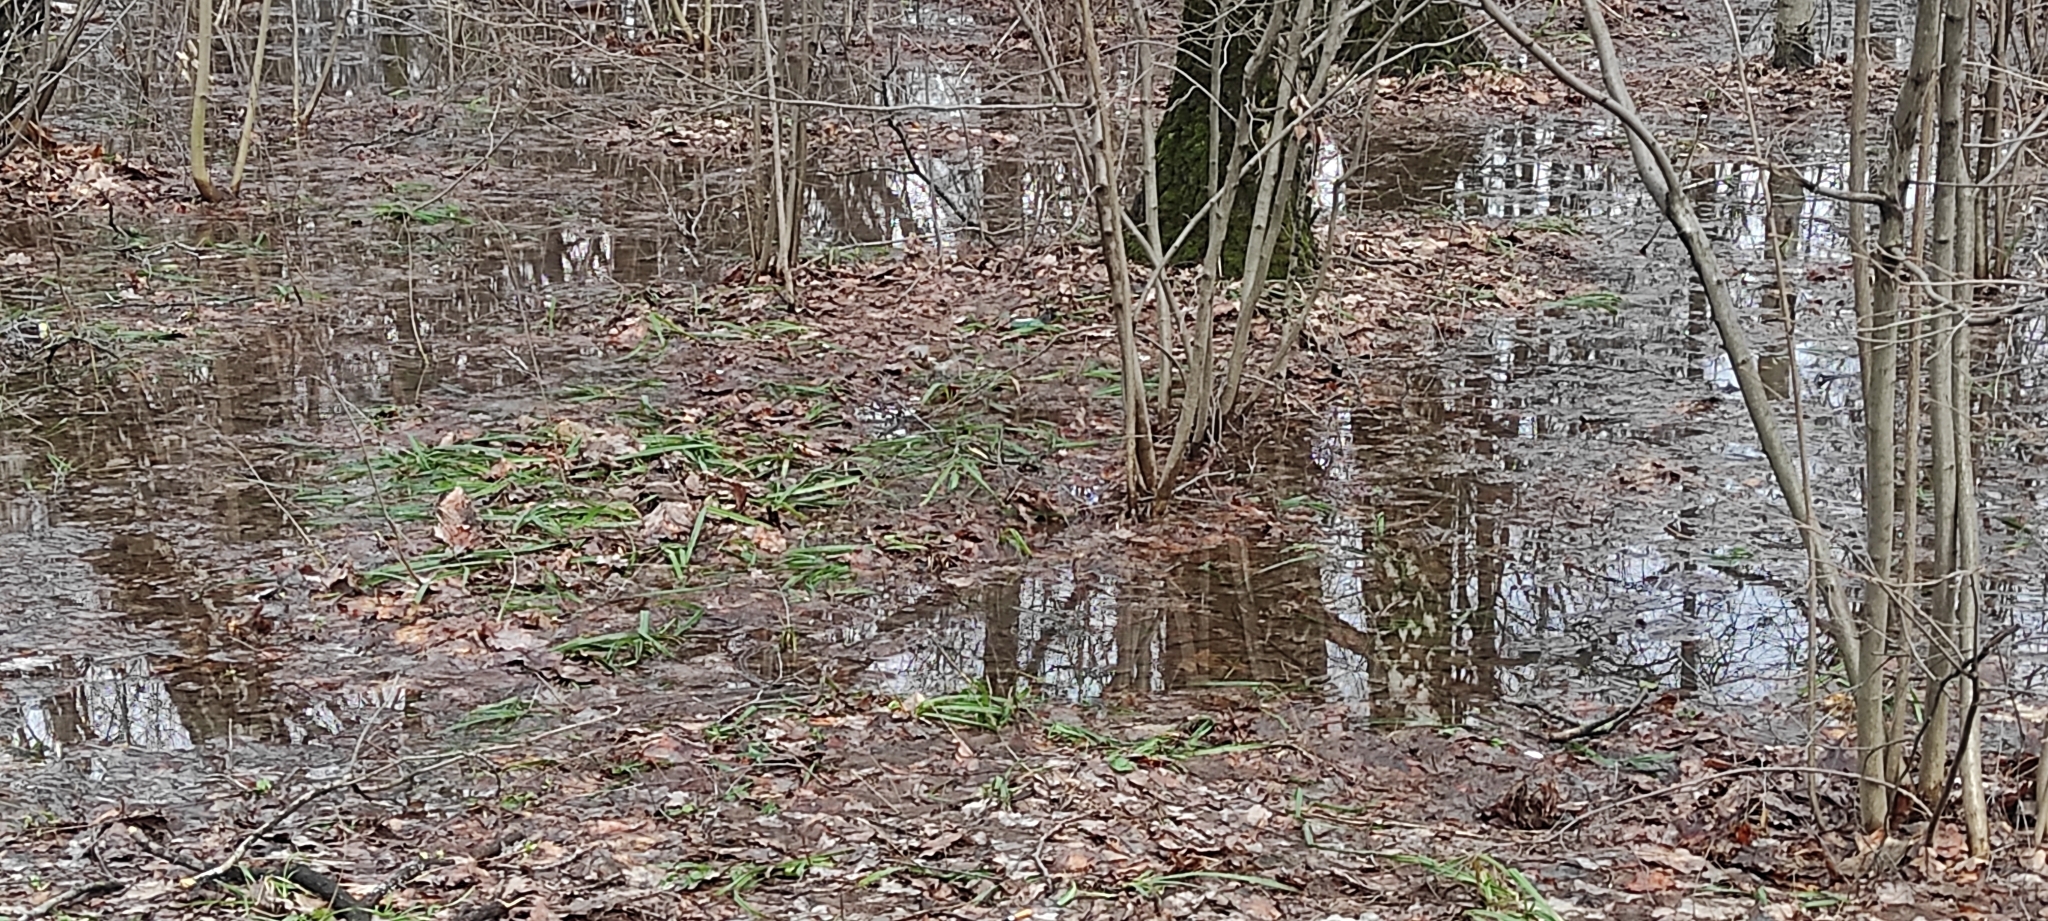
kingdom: Animalia
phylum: Chordata
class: Aves
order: Passeriformes
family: Turdidae
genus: Turdus
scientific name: Turdus pilaris
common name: Fieldfare
